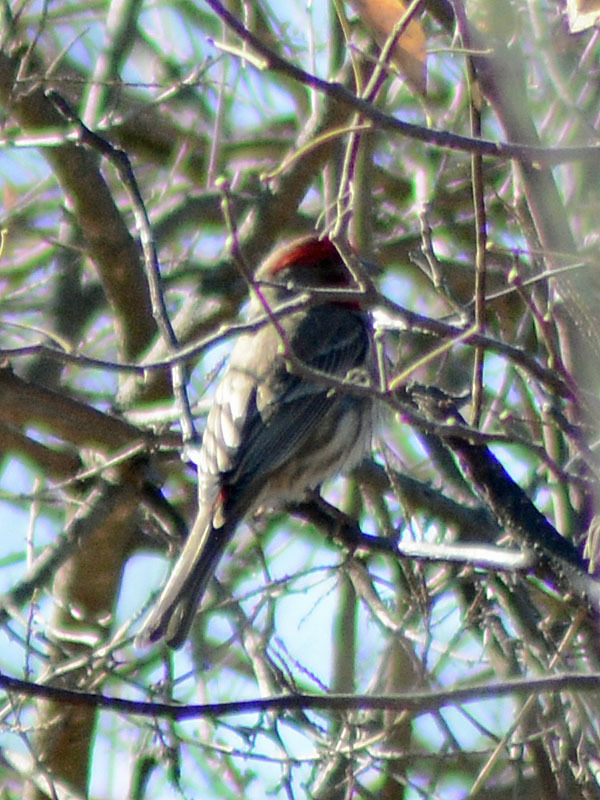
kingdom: Animalia
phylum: Chordata
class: Aves
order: Passeriformes
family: Fringillidae
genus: Haemorhous
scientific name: Haemorhous mexicanus
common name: House finch
